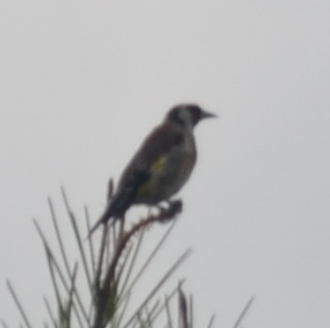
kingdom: Animalia
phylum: Chordata
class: Aves
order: Passeriformes
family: Fringillidae
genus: Carduelis
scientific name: Carduelis carduelis
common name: European goldfinch
